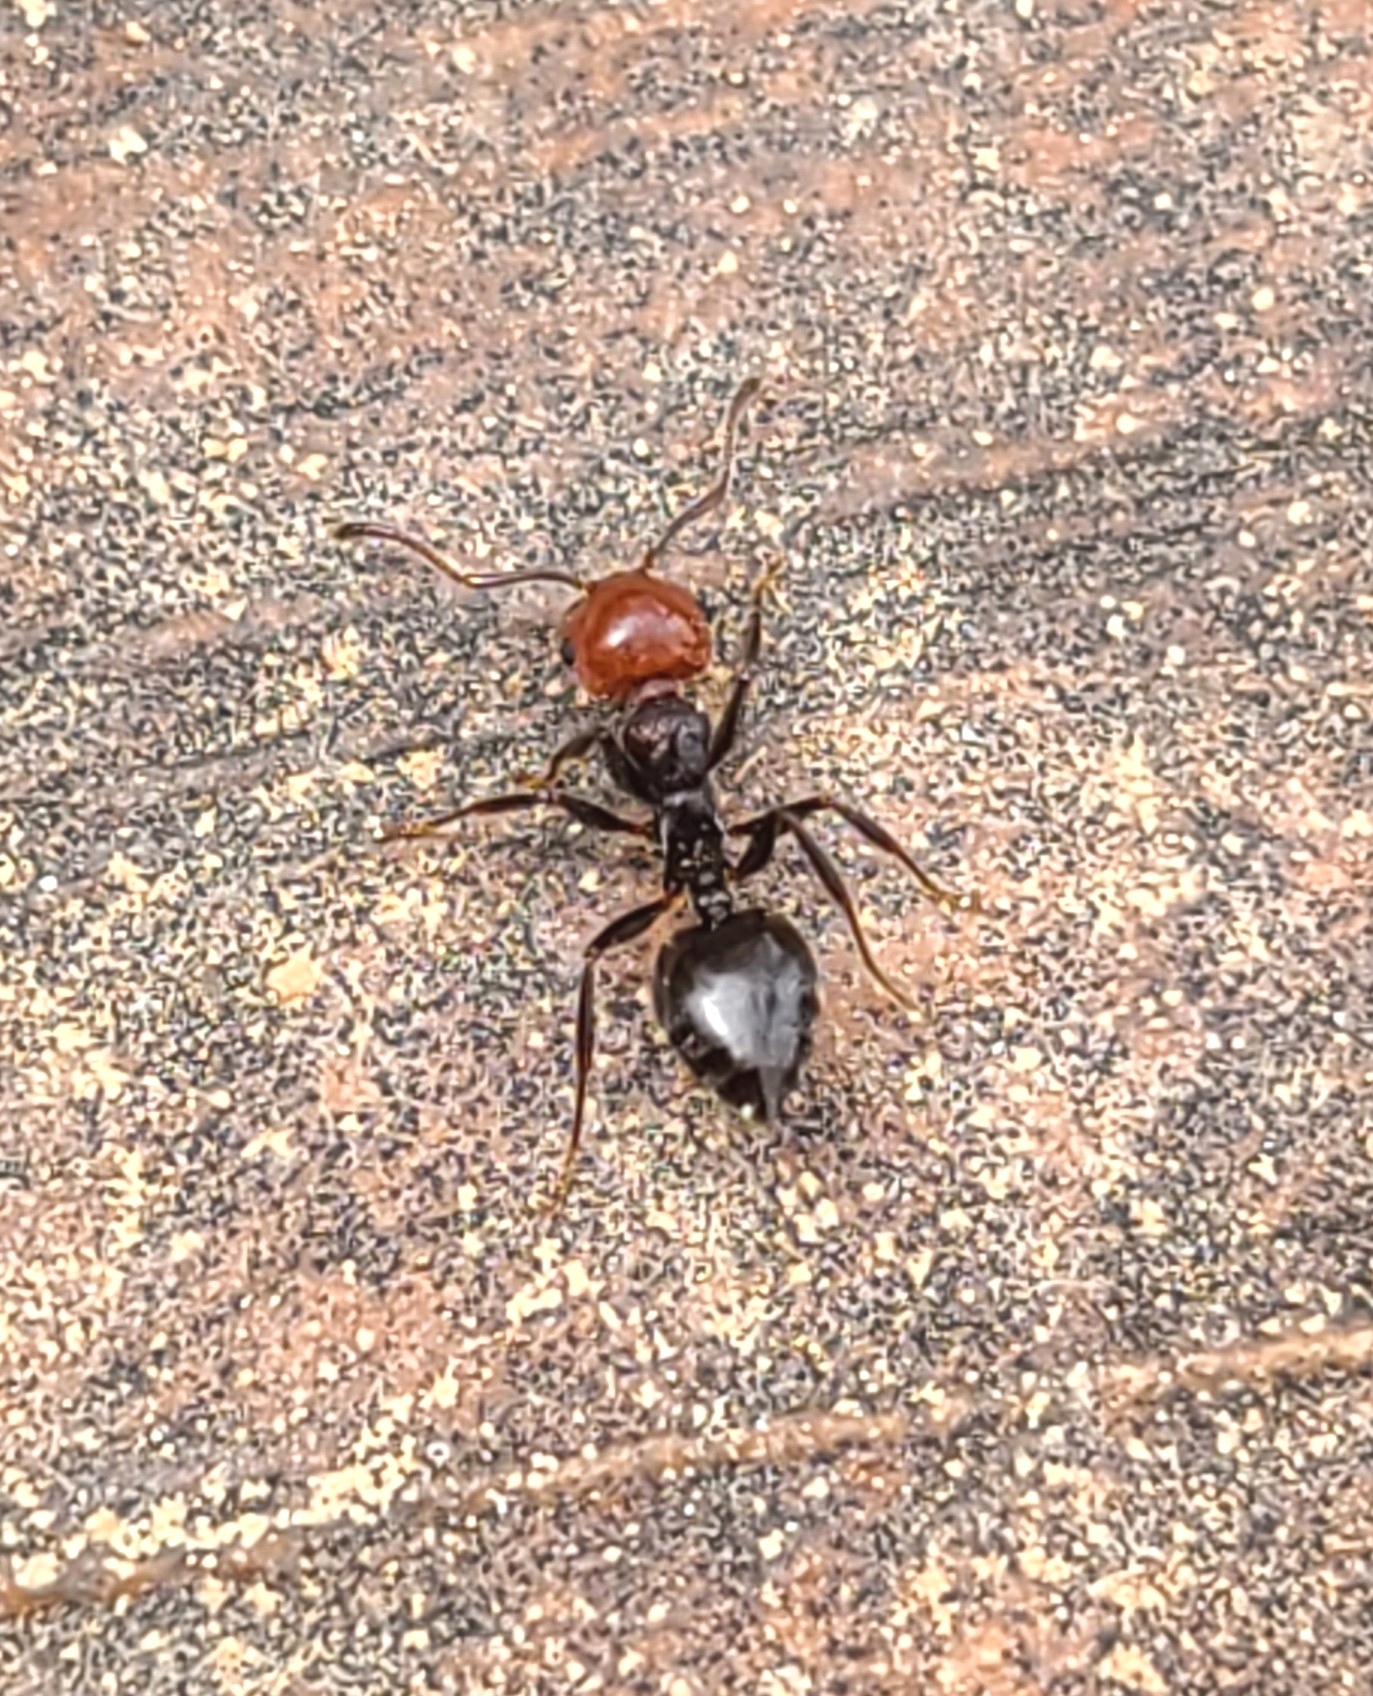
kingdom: Animalia
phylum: Arthropoda
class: Insecta
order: Hymenoptera
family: Formicidae
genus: Crematogaster
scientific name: Crematogaster scutellaris
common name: Fourmi du liège
